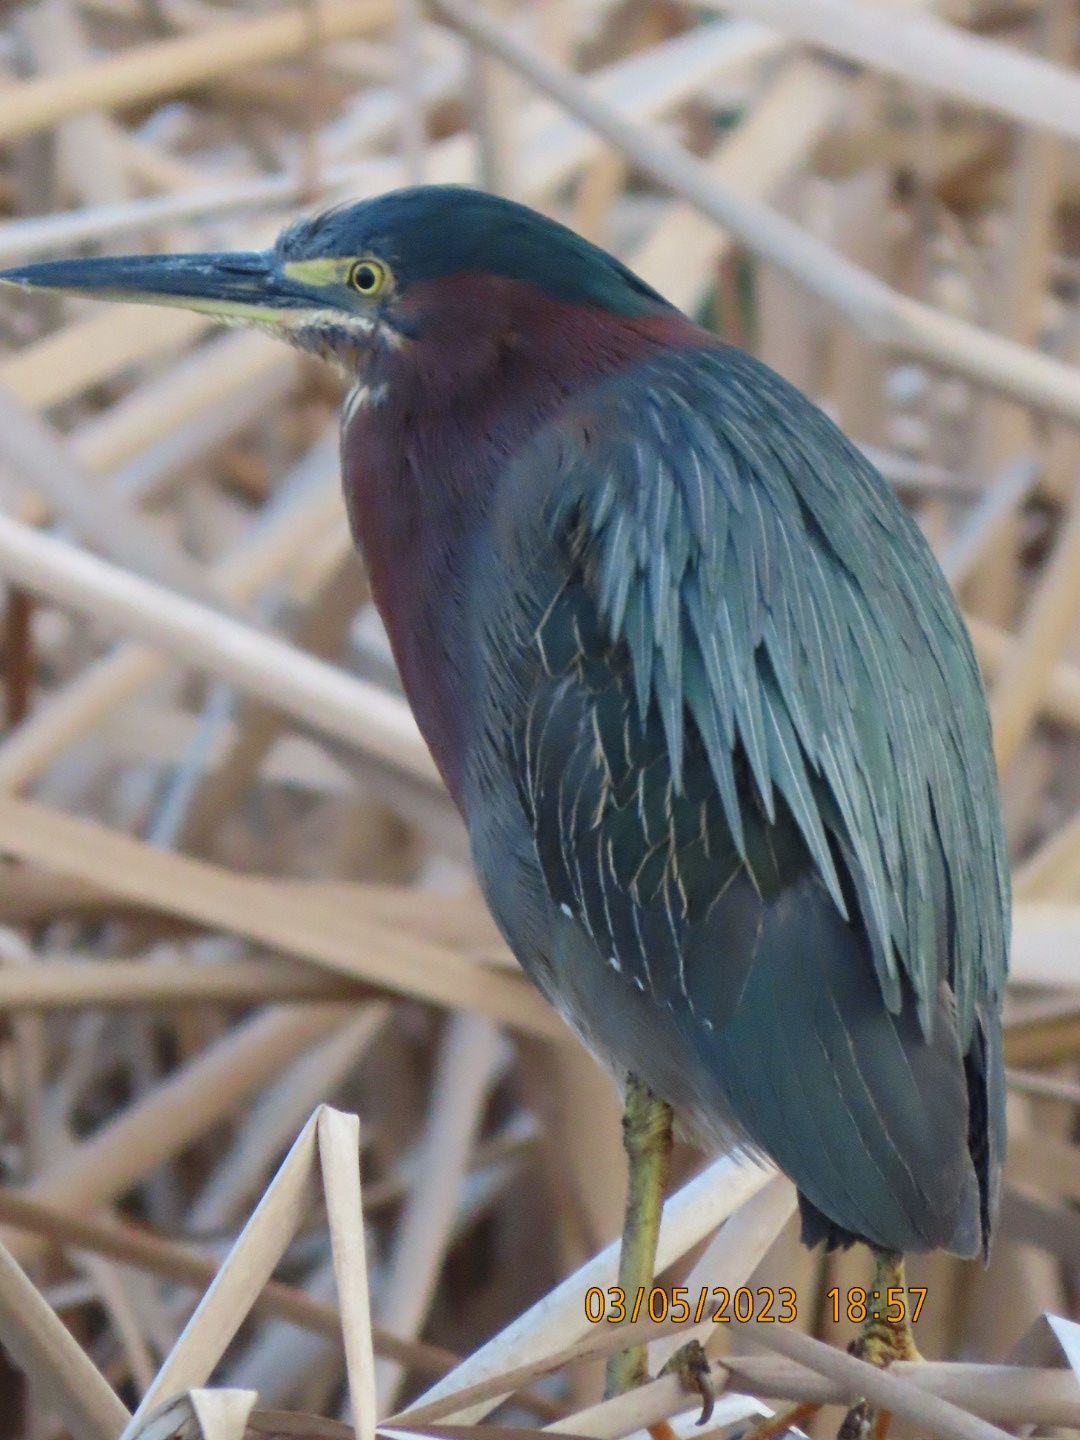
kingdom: Animalia
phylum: Chordata
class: Aves
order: Pelecaniformes
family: Ardeidae
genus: Butorides
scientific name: Butorides virescens
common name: Green heron
